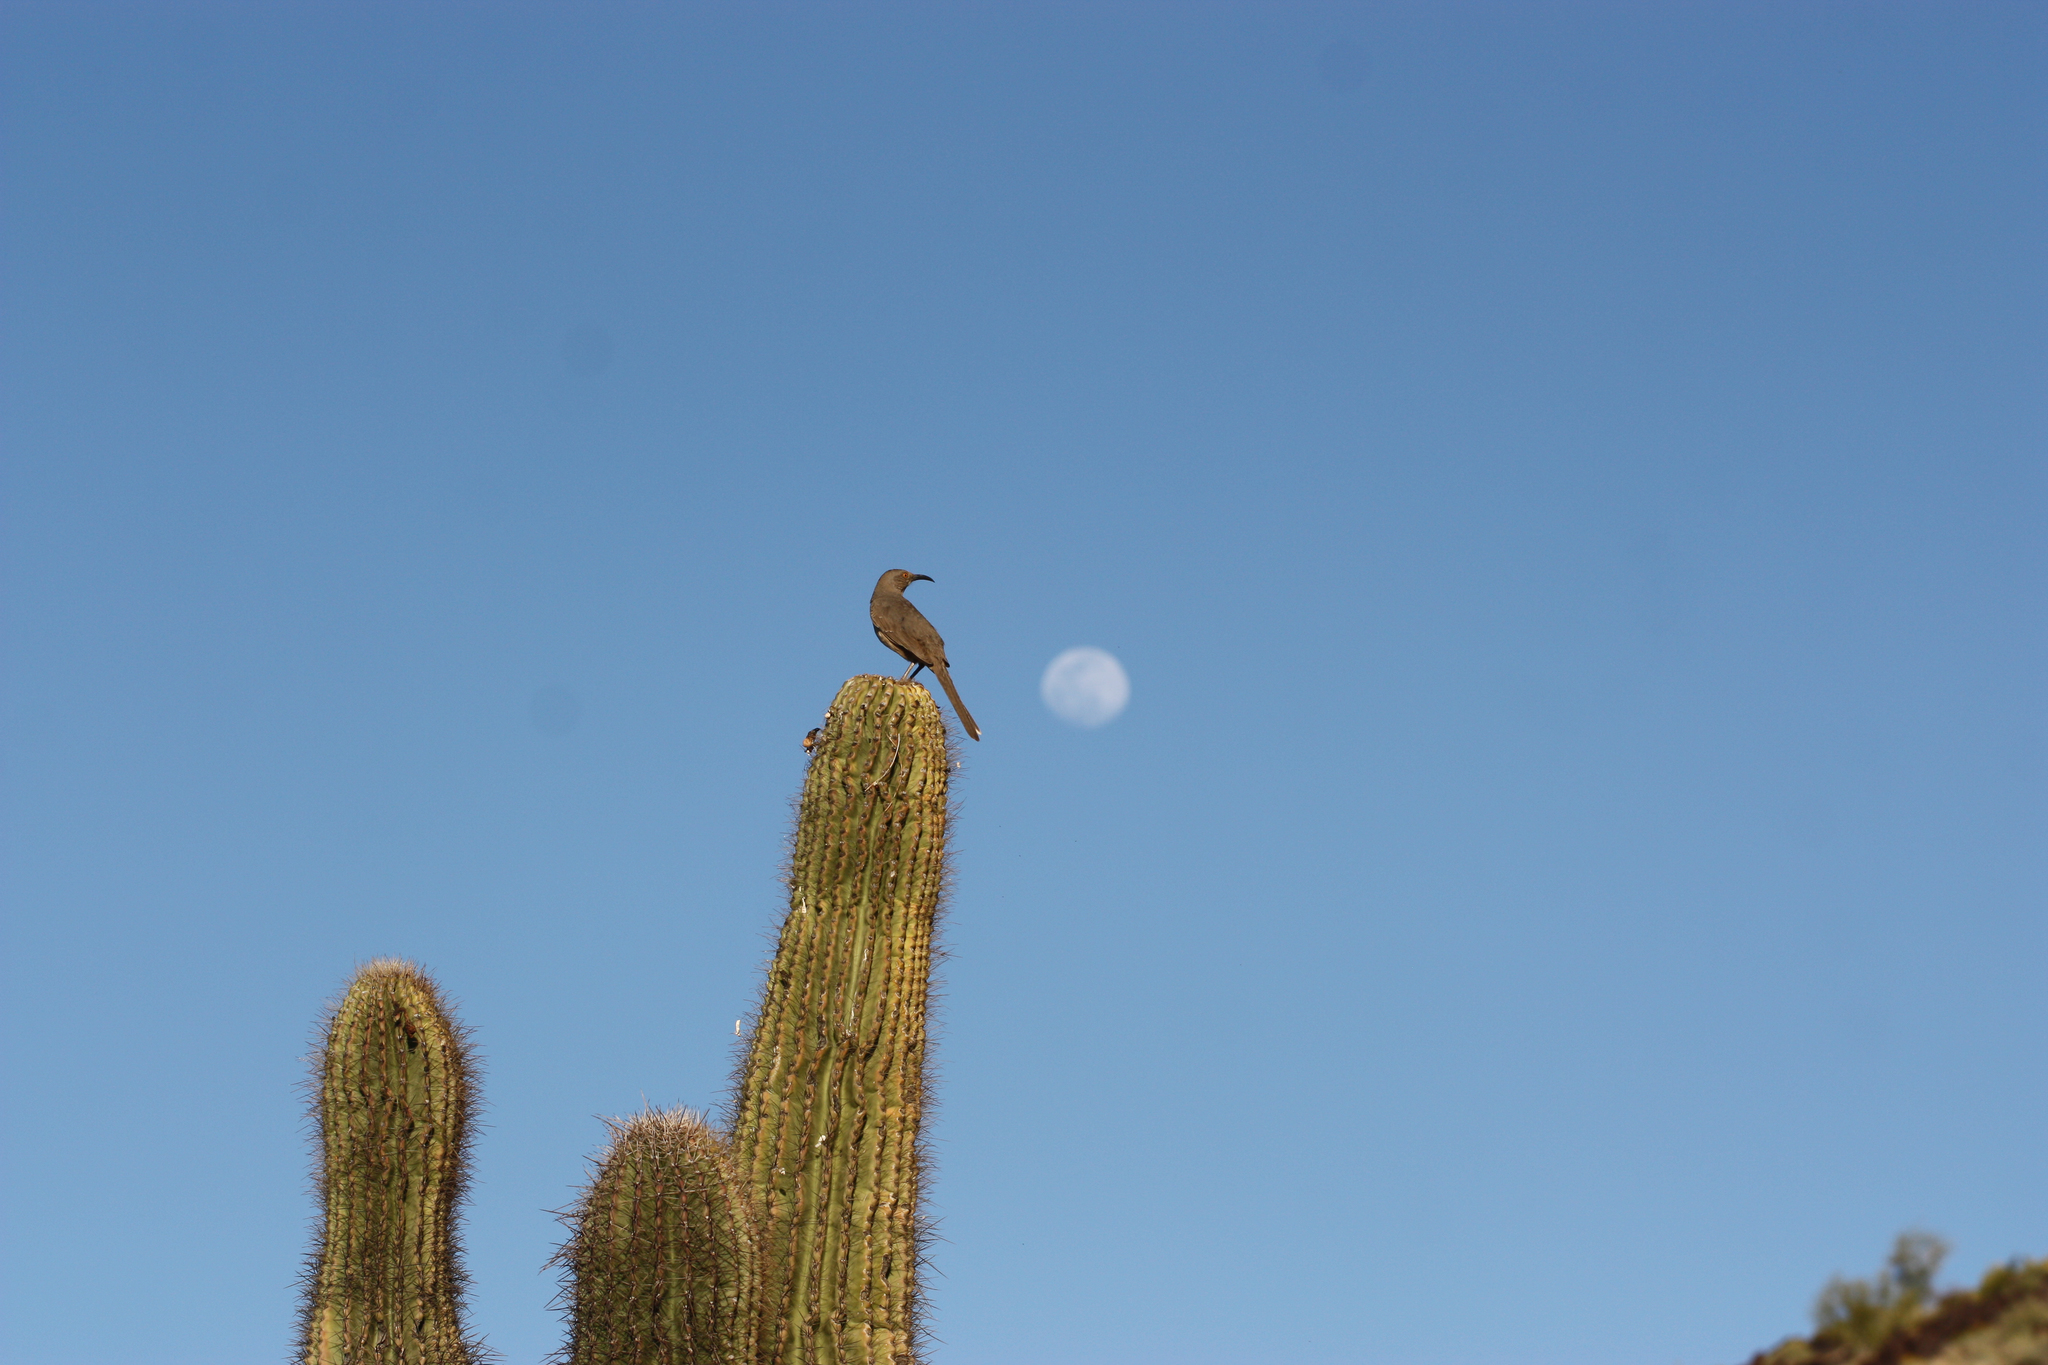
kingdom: Animalia
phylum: Chordata
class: Aves
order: Passeriformes
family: Mimidae
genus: Toxostoma
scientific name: Toxostoma curvirostre
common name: Curve-billed thrasher
